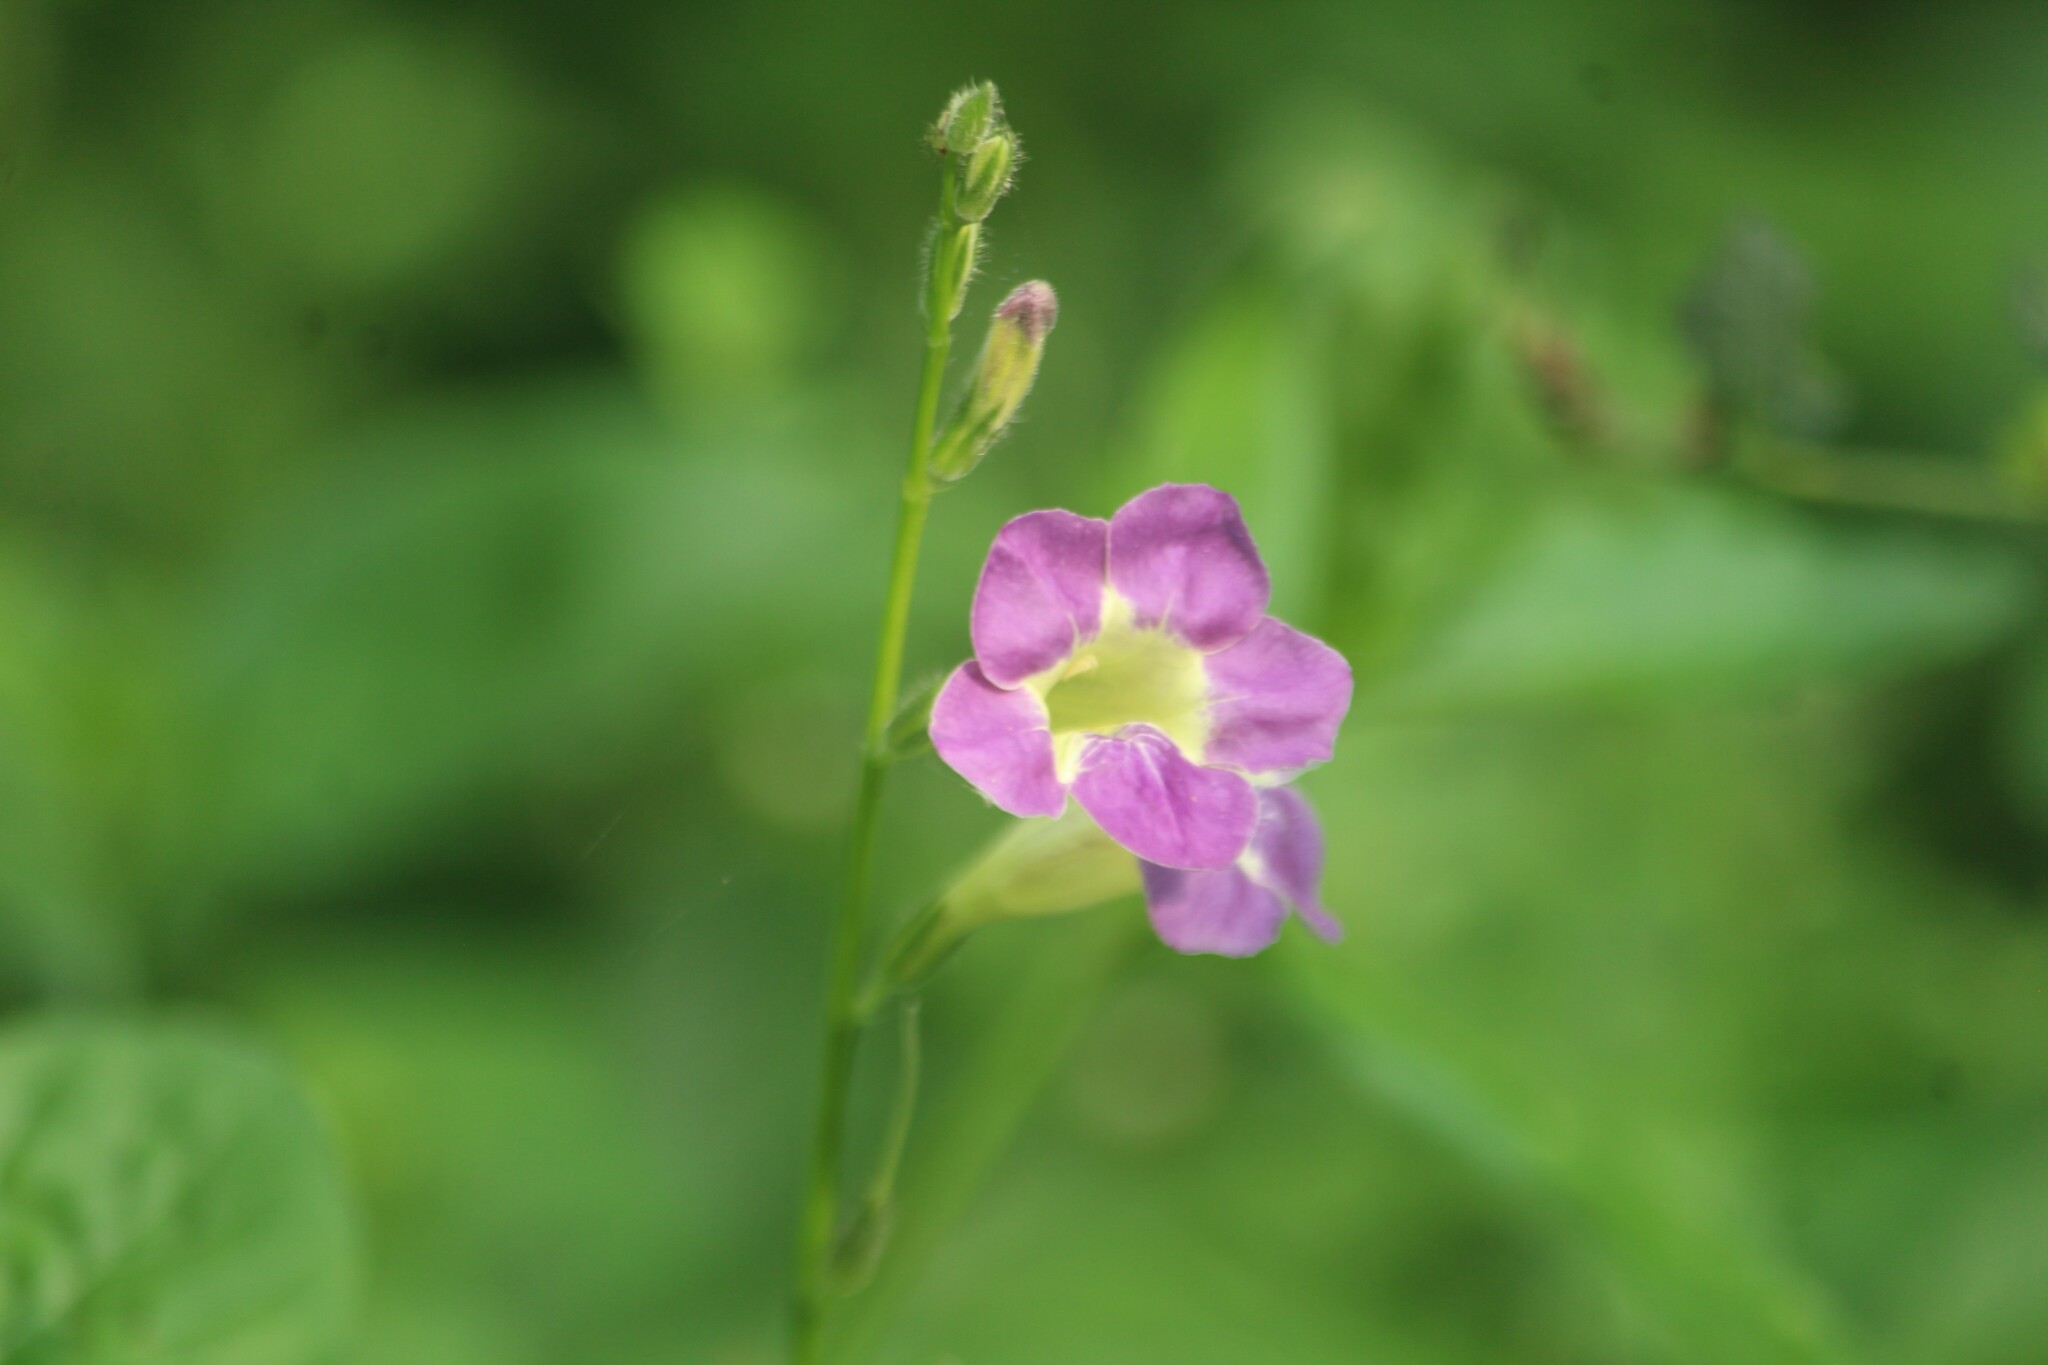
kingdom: Plantae
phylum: Tracheophyta
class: Magnoliopsida
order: Lamiales
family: Acanthaceae
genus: Asystasia
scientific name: Asystasia gangetica
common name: Chinese violet
